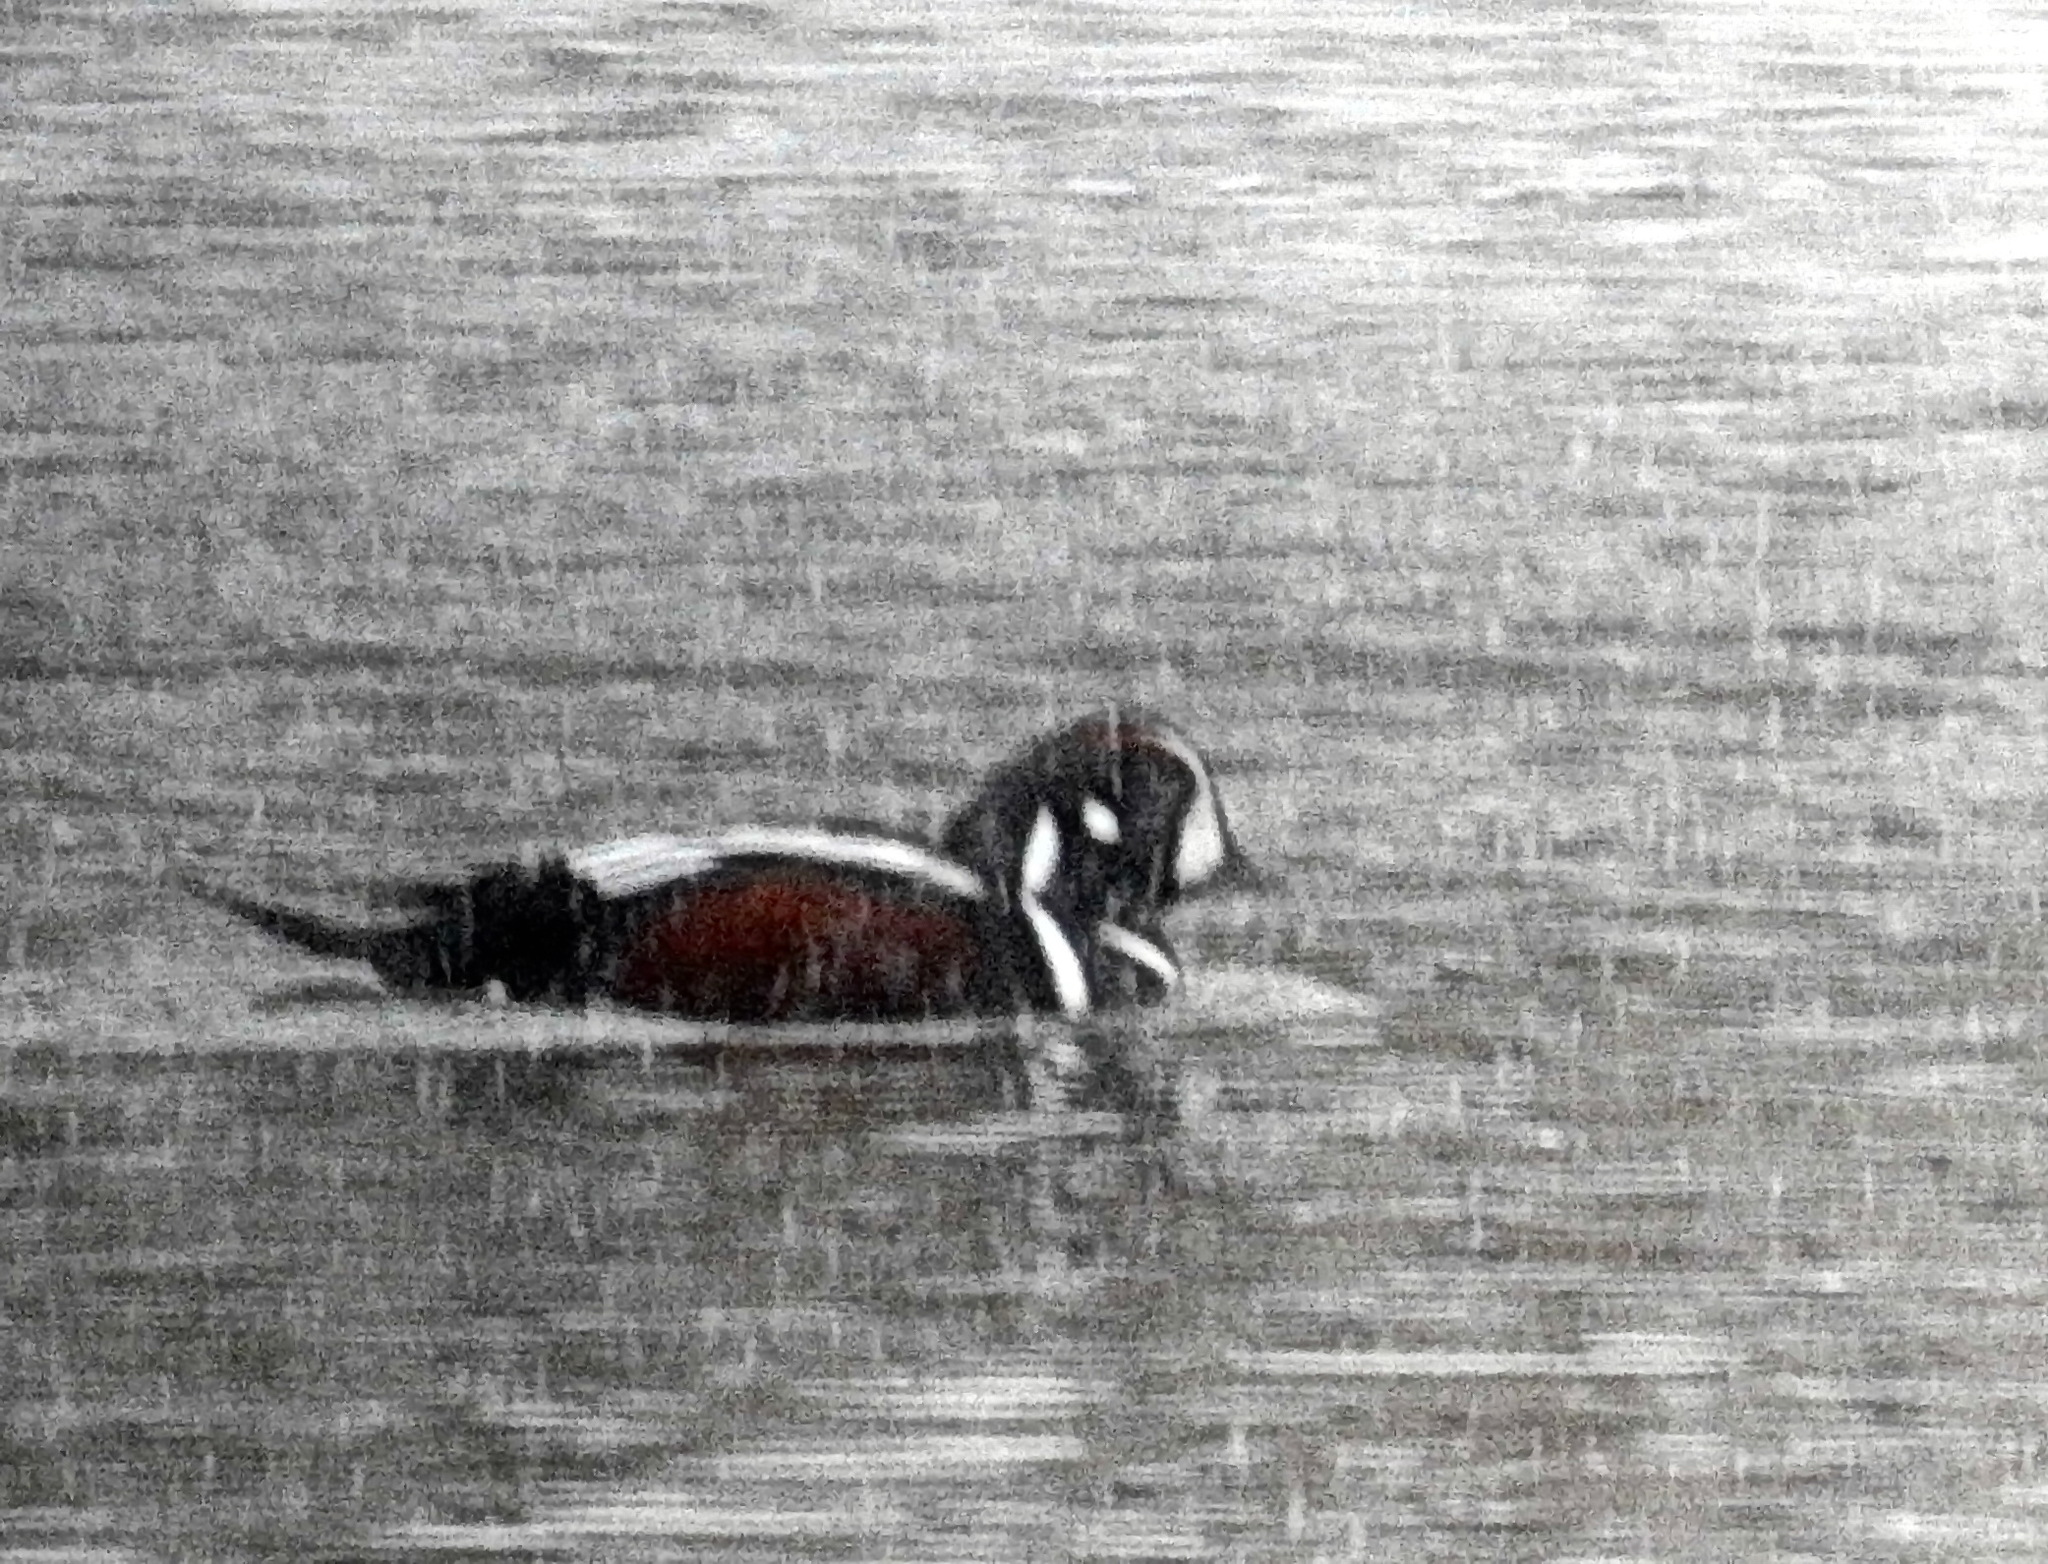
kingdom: Animalia
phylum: Chordata
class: Aves
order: Anseriformes
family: Anatidae
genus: Histrionicus
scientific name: Histrionicus histrionicus
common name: Harlequin duck
